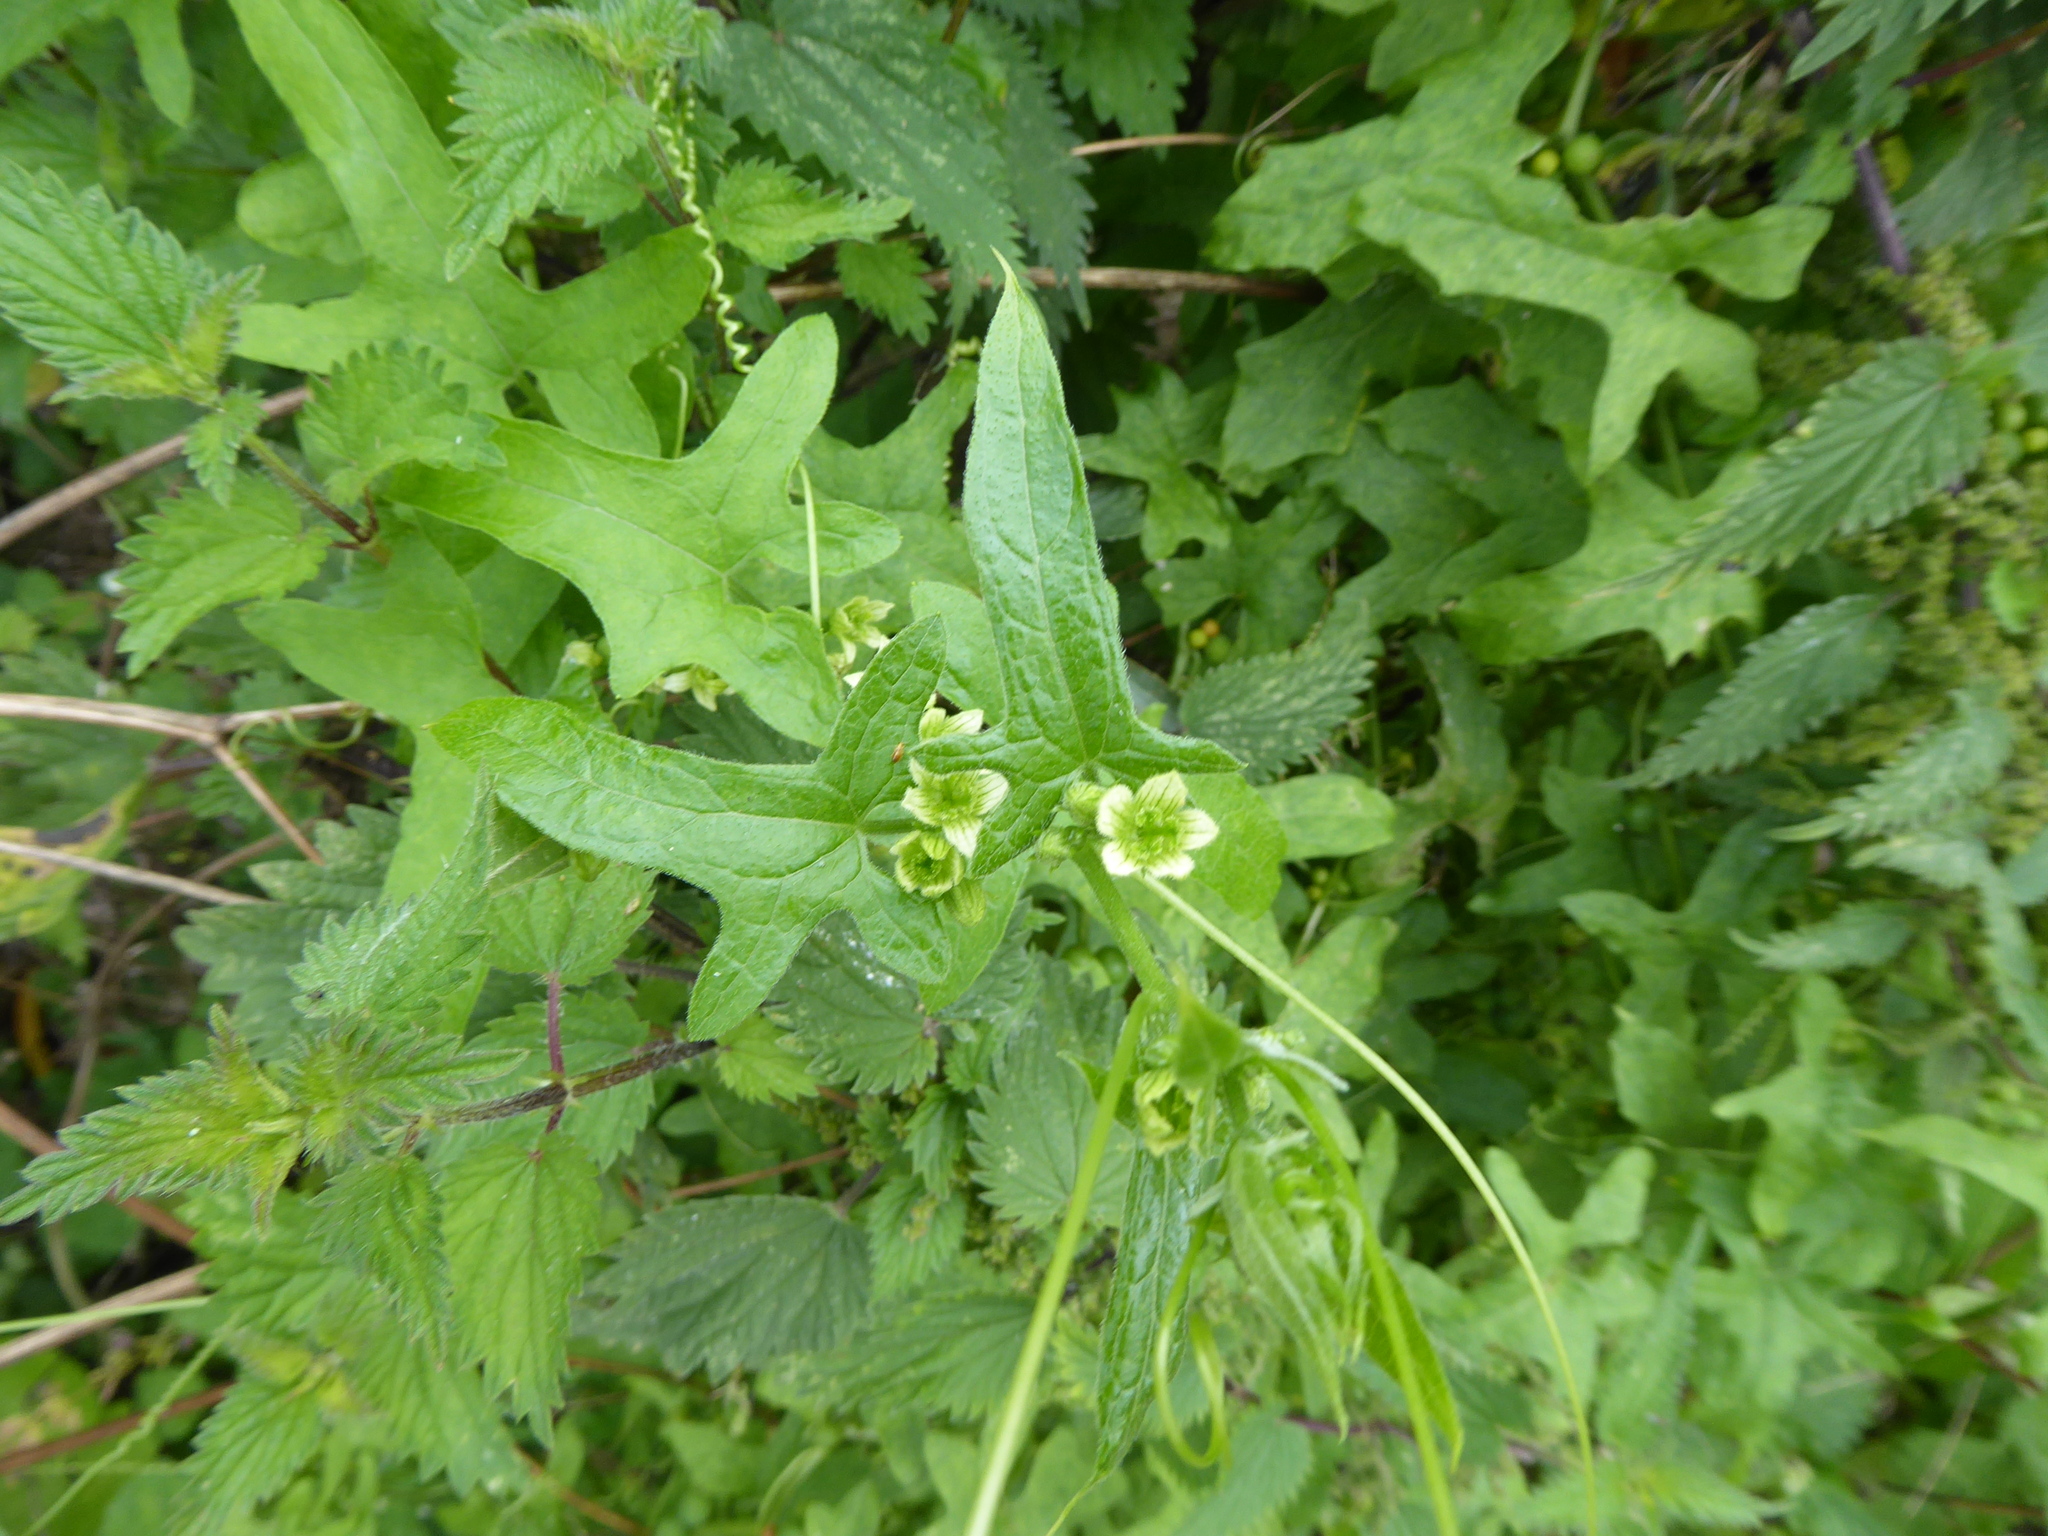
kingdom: Plantae
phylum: Tracheophyta
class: Magnoliopsida
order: Cucurbitales
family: Cucurbitaceae
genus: Bryonia
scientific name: Bryonia cretica
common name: Cretan bryony
